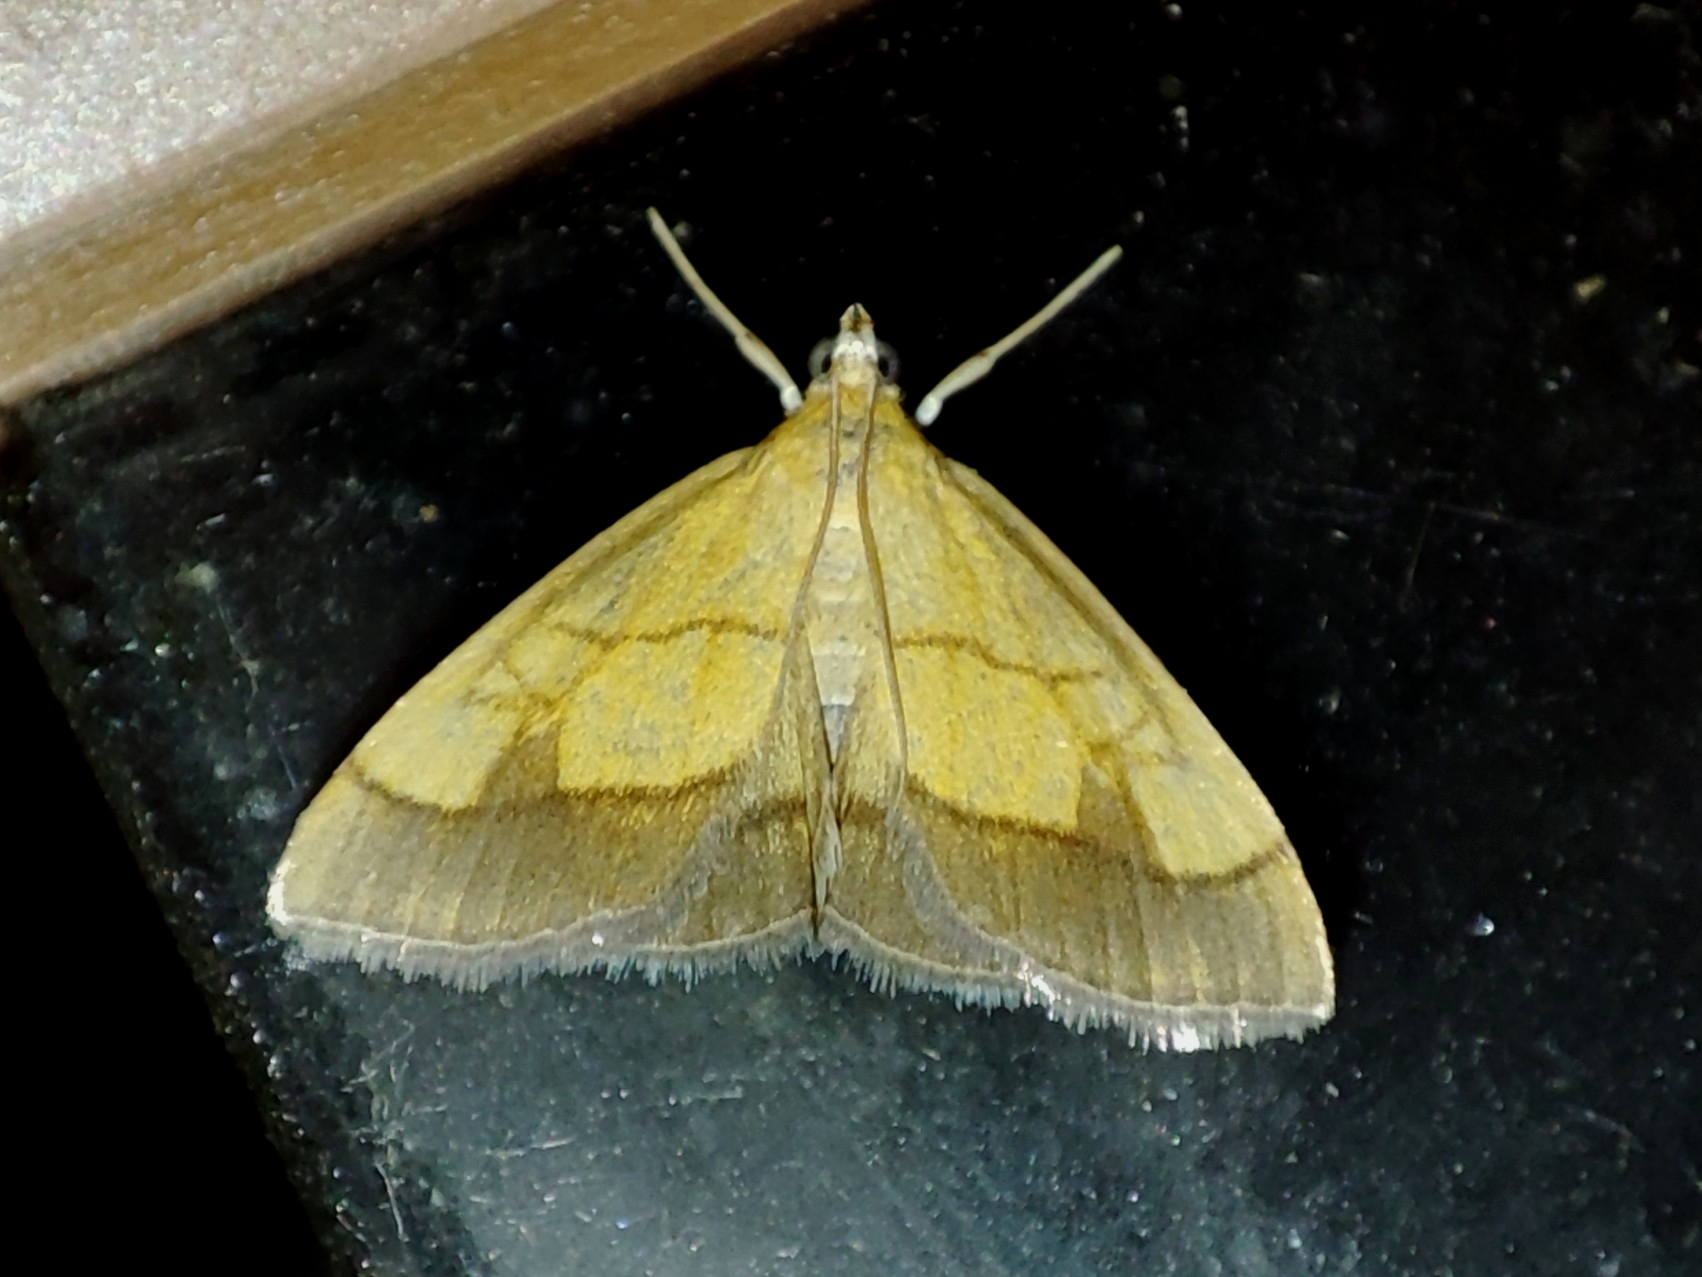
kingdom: Animalia
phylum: Arthropoda
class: Insecta
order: Lepidoptera
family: Crambidae
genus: Evergestis
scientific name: Evergestis limbata
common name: Dark bordered pearl
